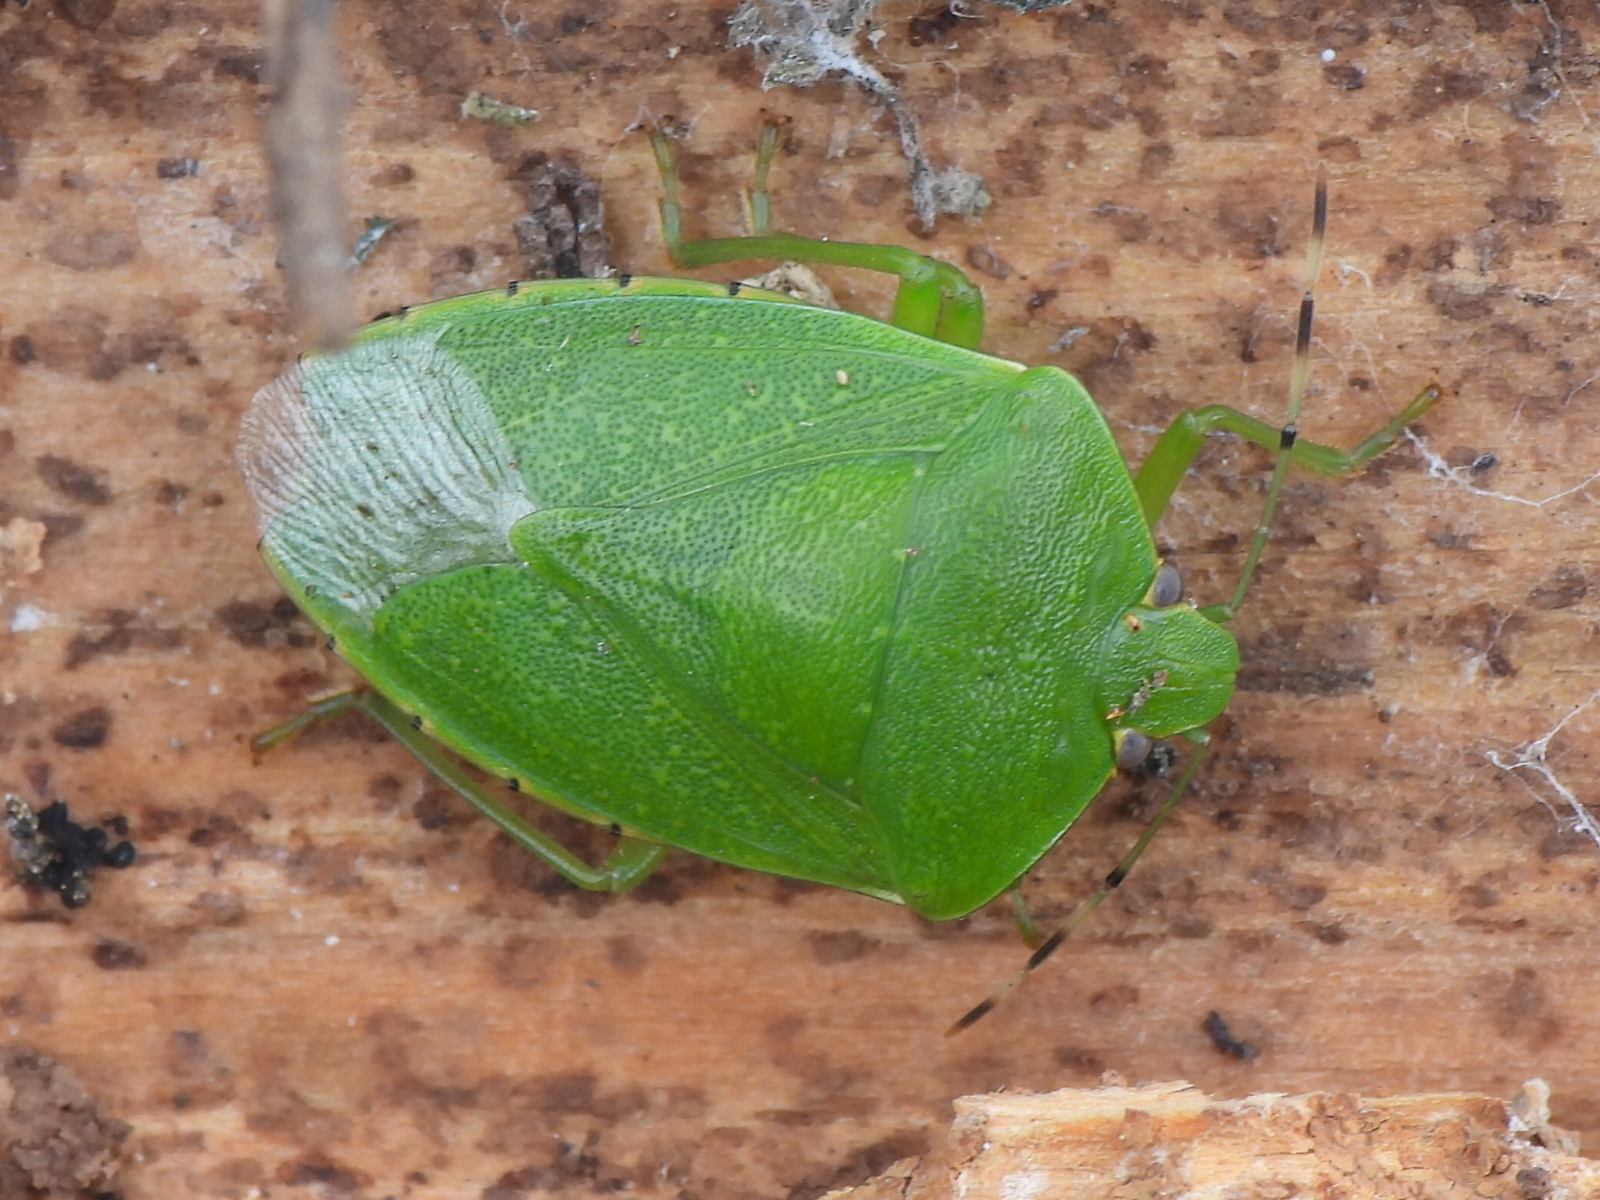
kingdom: Animalia
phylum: Arthropoda
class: Insecta
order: Hemiptera
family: Pentatomidae
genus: Chinavia
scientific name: Chinavia hilaris
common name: Green stink bug
